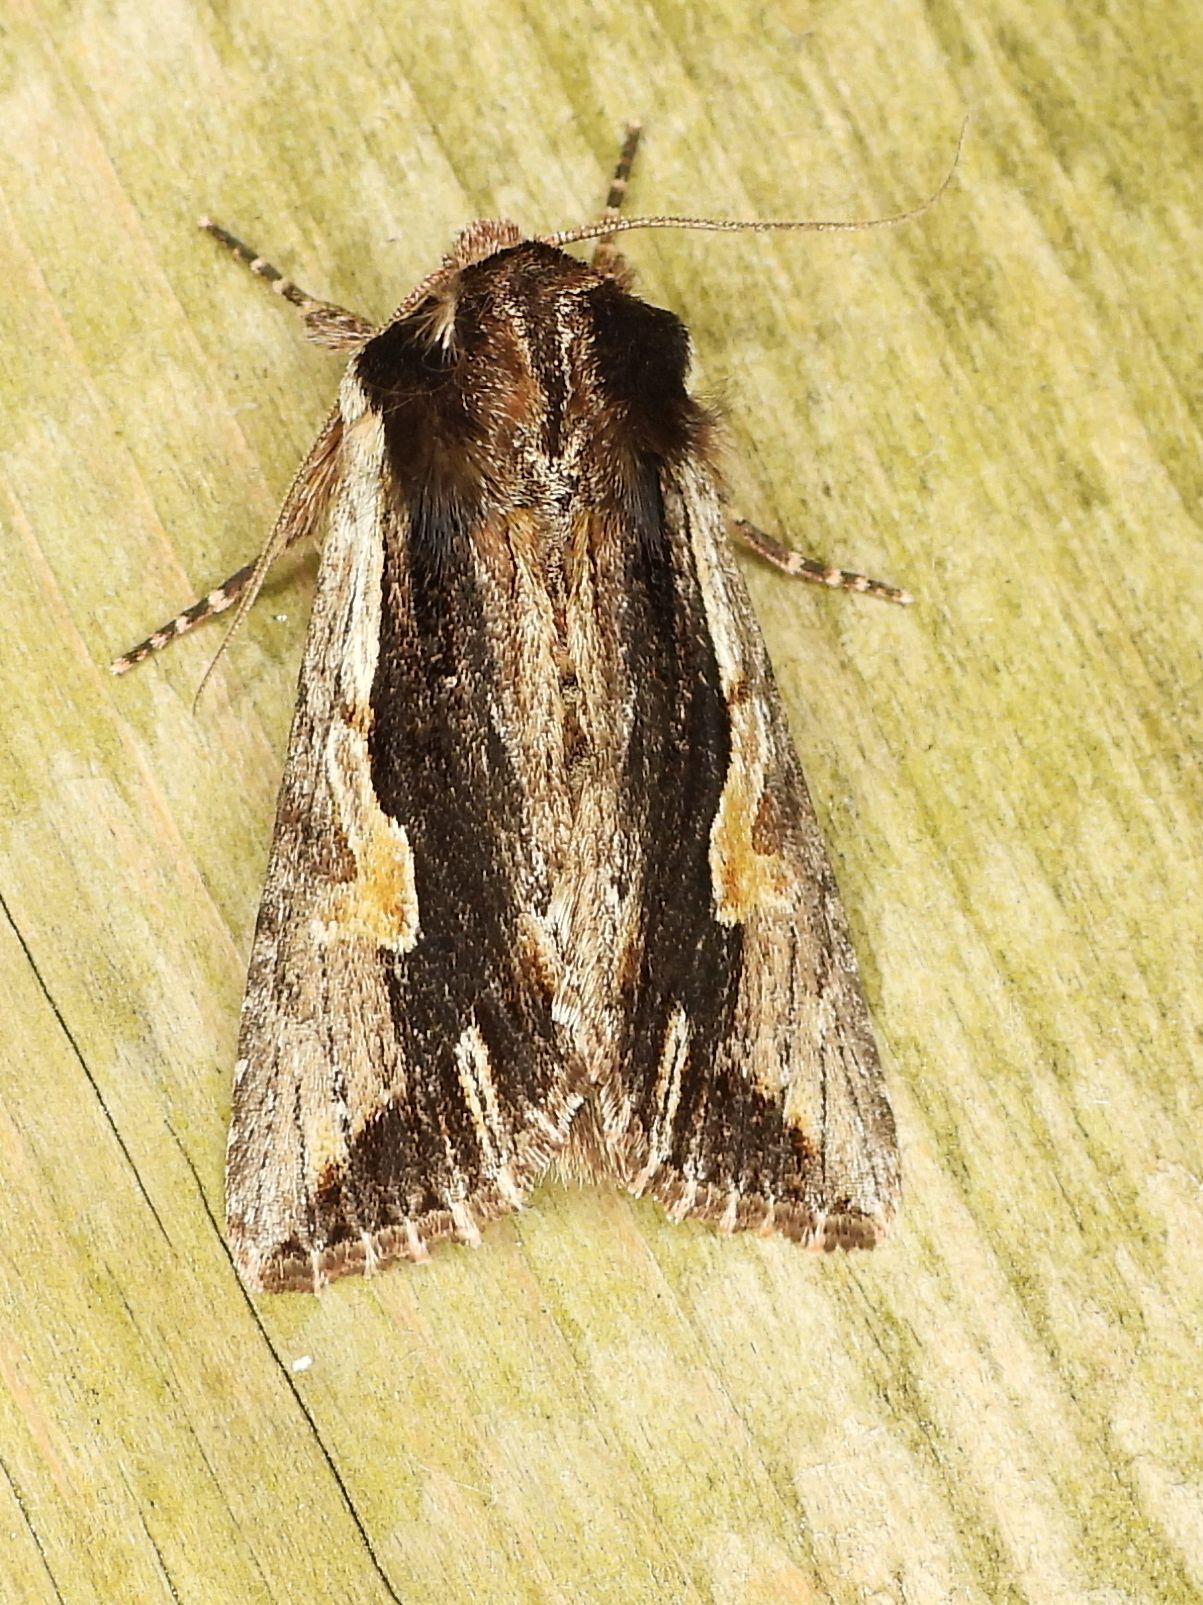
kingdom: Animalia
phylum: Arthropoda
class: Insecta
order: Lepidoptera
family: Noctuidae
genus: Achatia
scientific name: Achatia evicta
